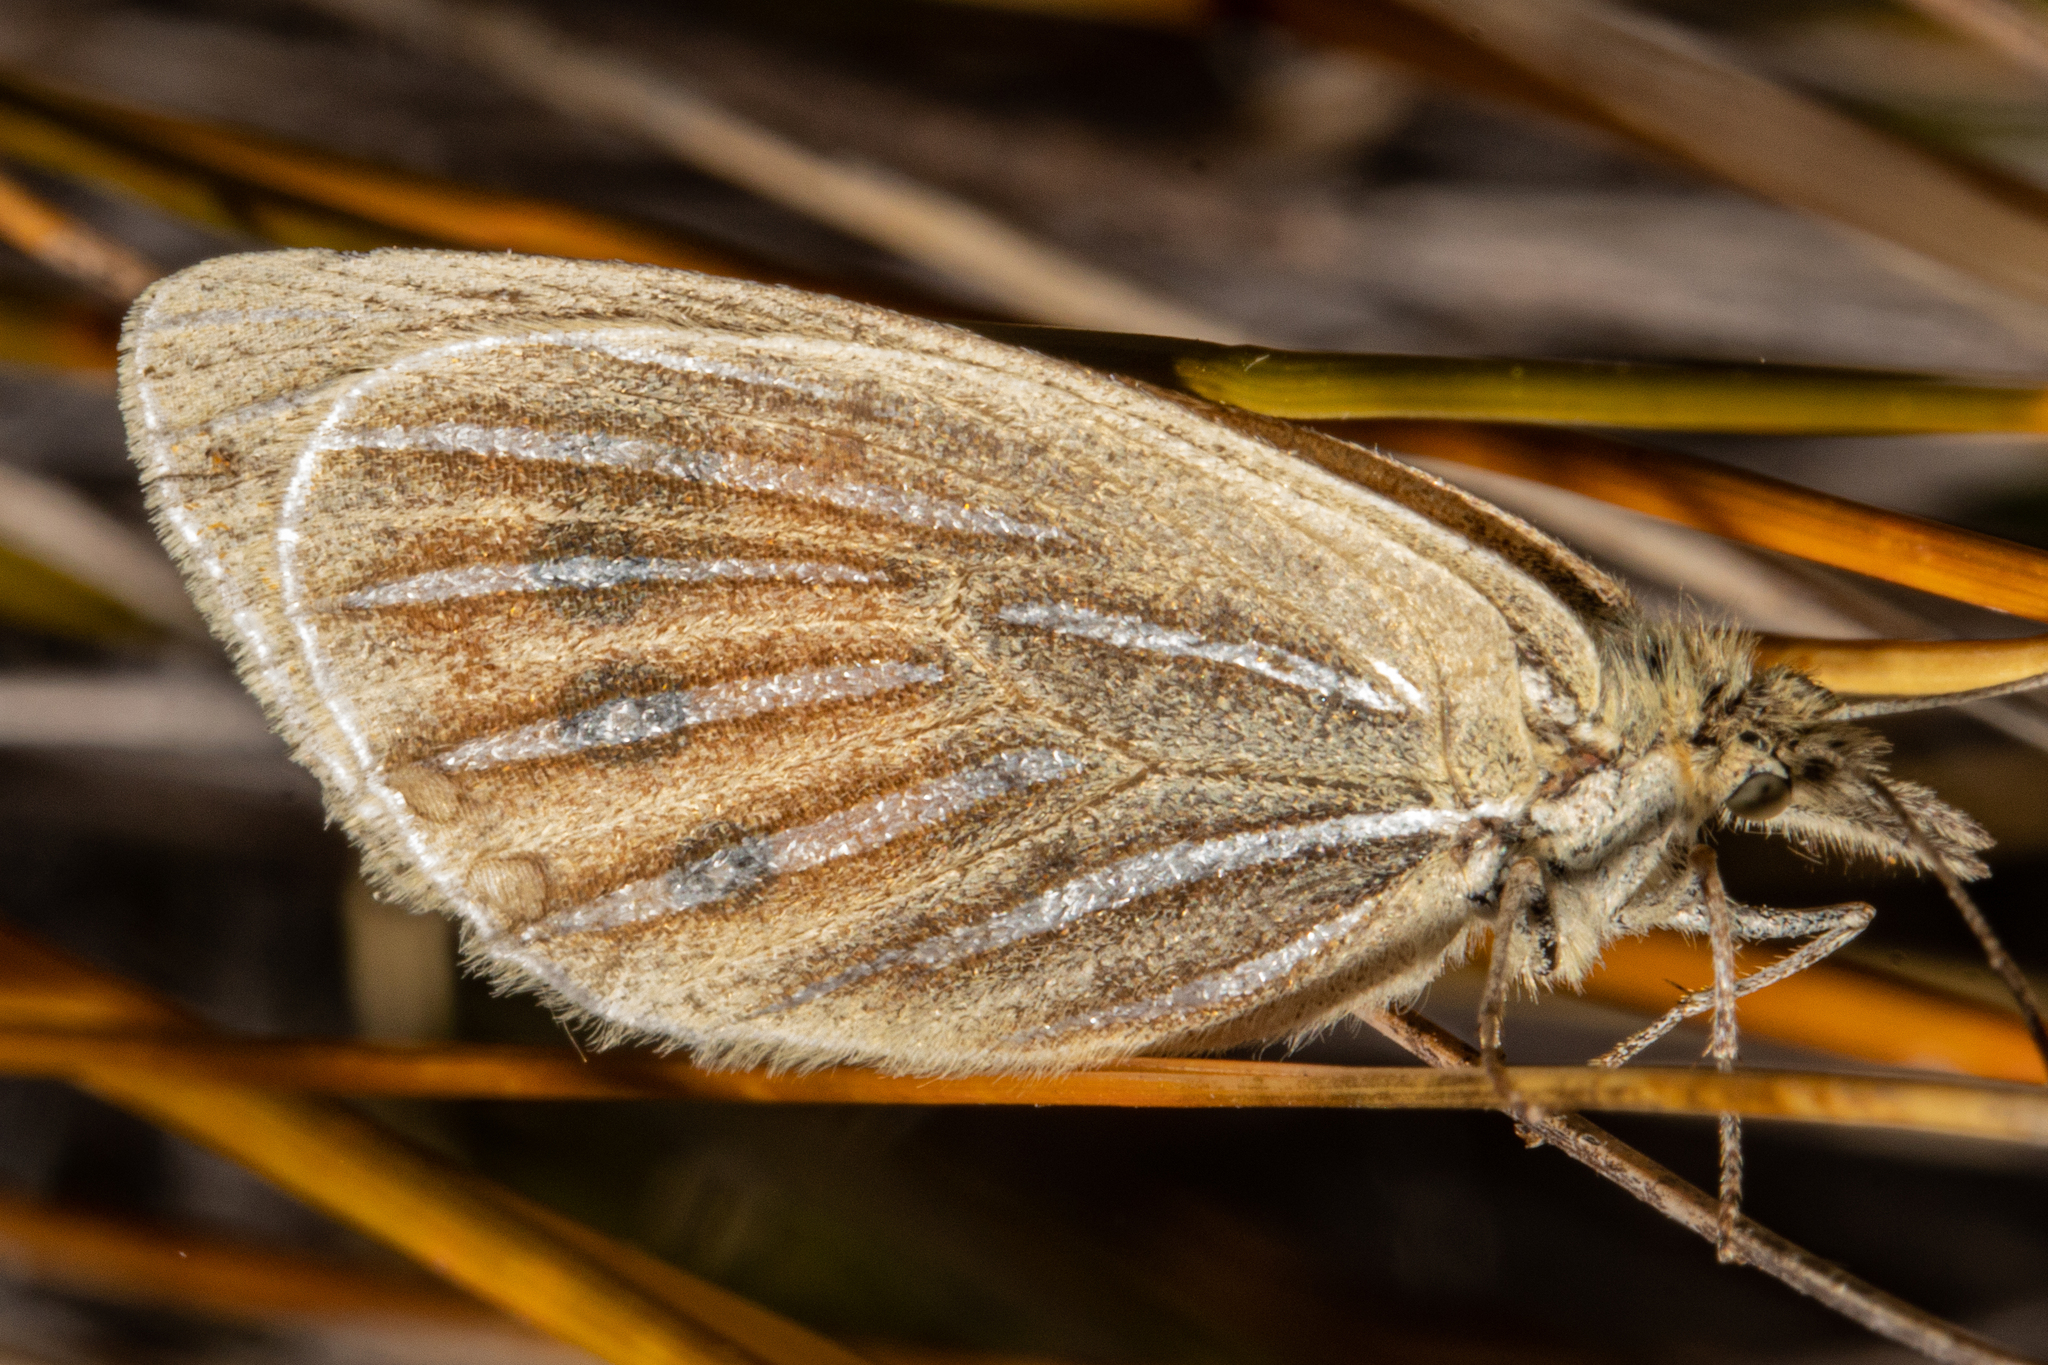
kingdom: Animalia
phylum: Arthropoda
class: Insecta
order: Lepidoptera
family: Nymphalidae
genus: Argyrophenga
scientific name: Argyrophenga antipodum
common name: Common tussock butterfly
